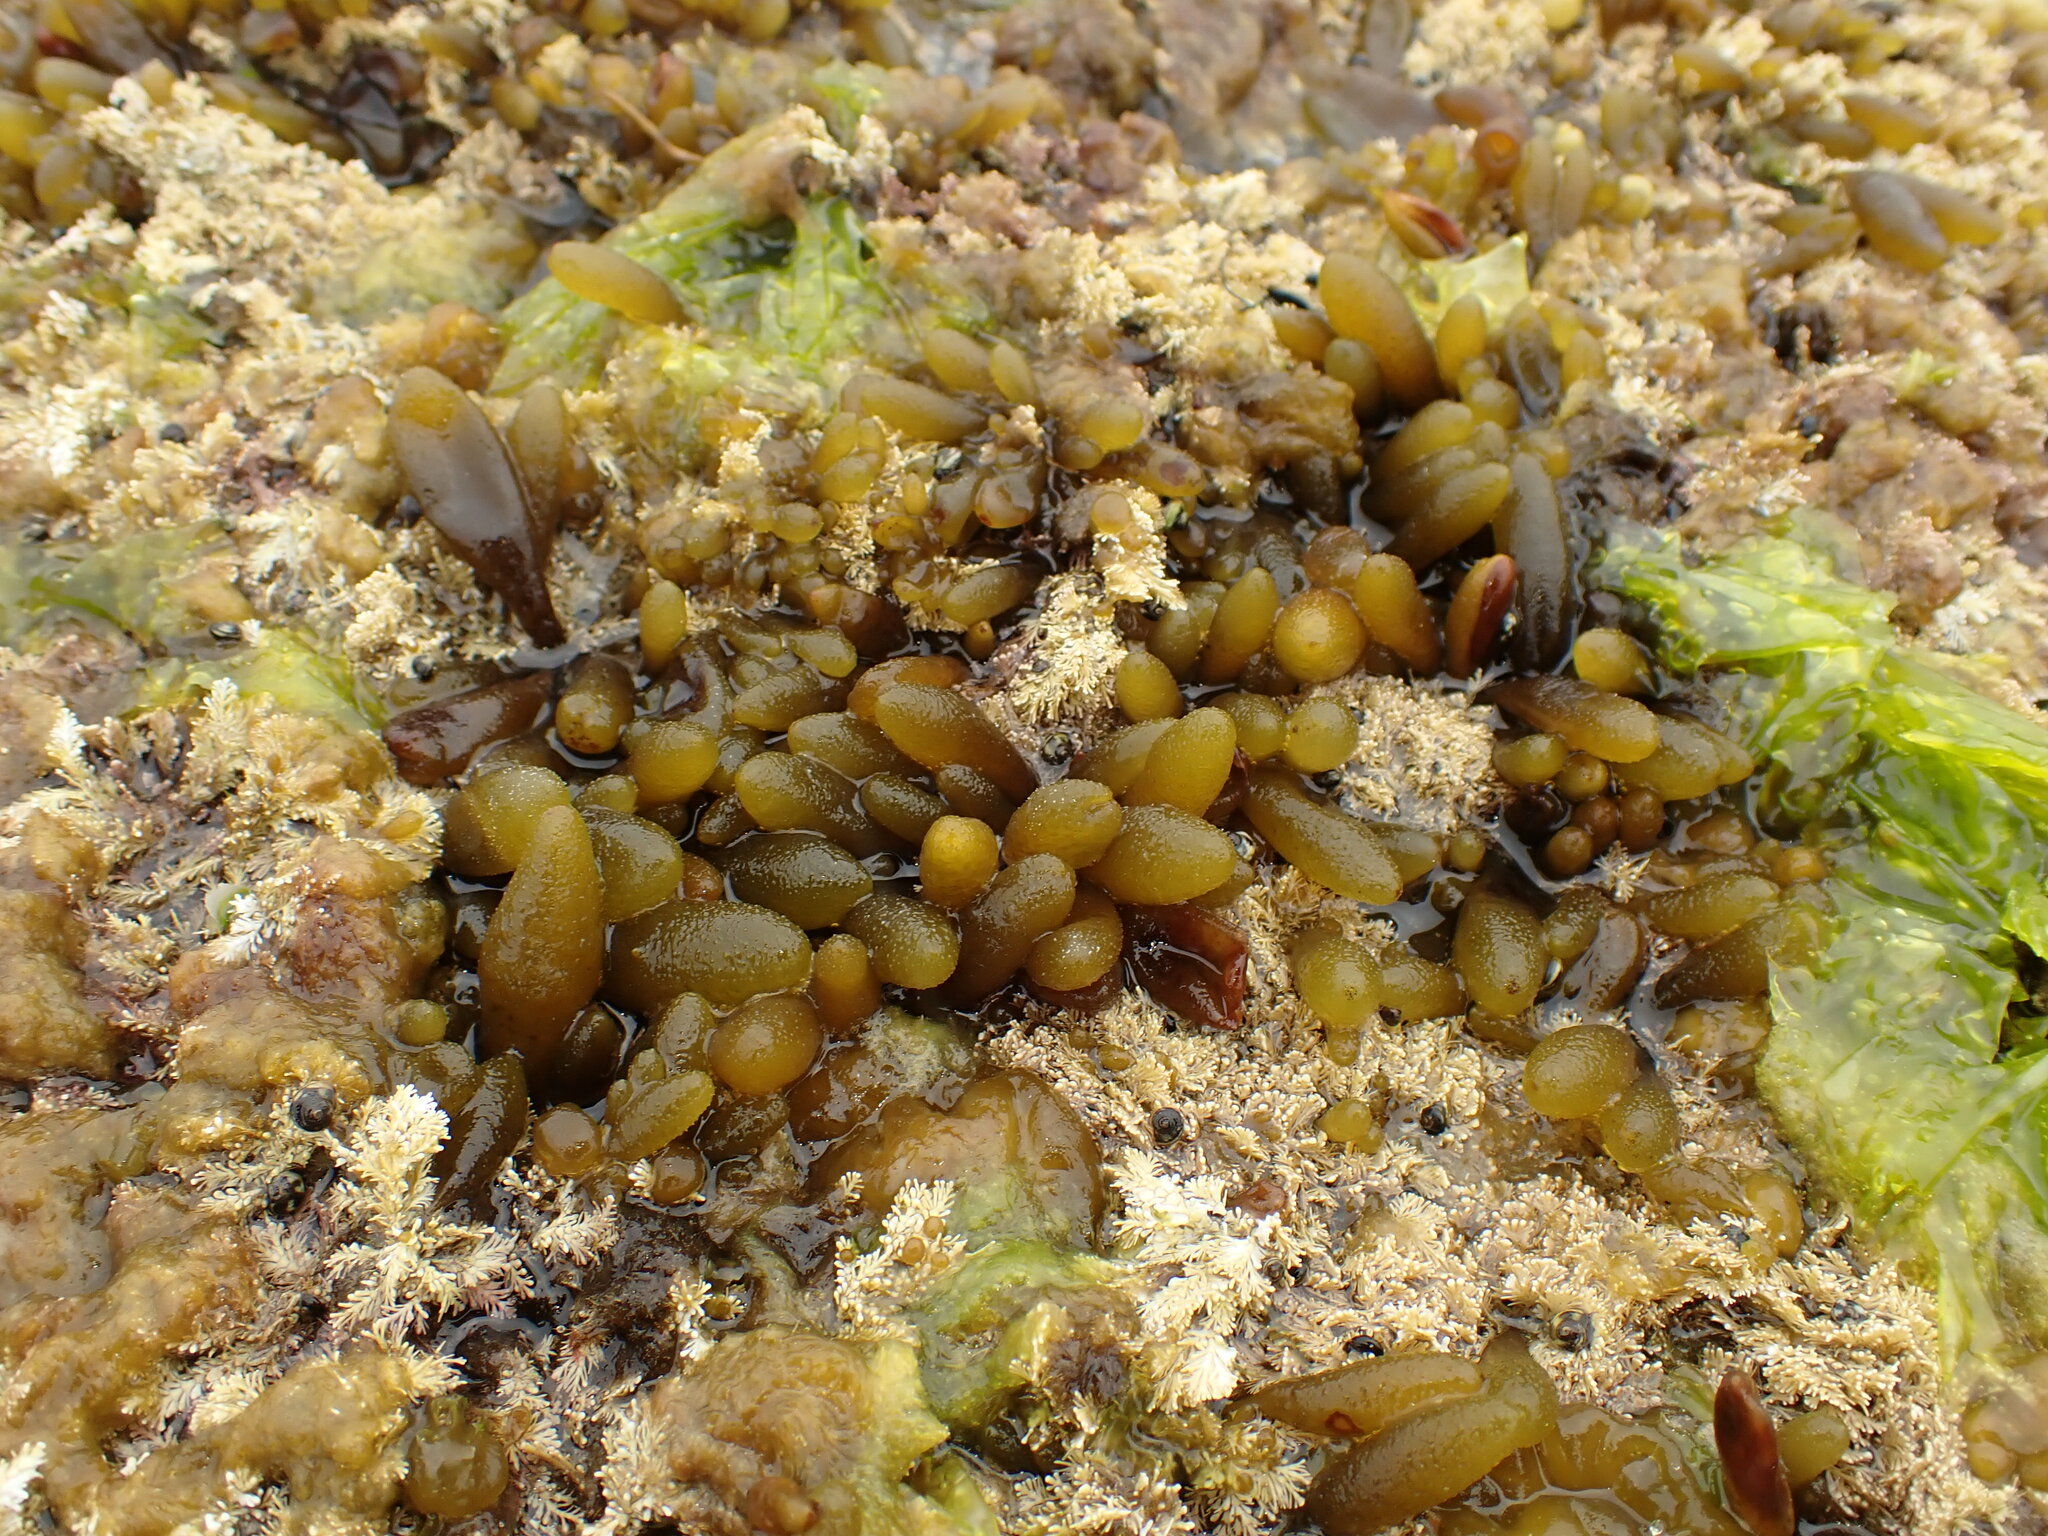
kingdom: Chromista
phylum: Ochrophyta
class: Phaeophyceae
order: Ectocarpales
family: Adenocystaceae
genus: Adenocystis
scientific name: Adenocystis utricularis
